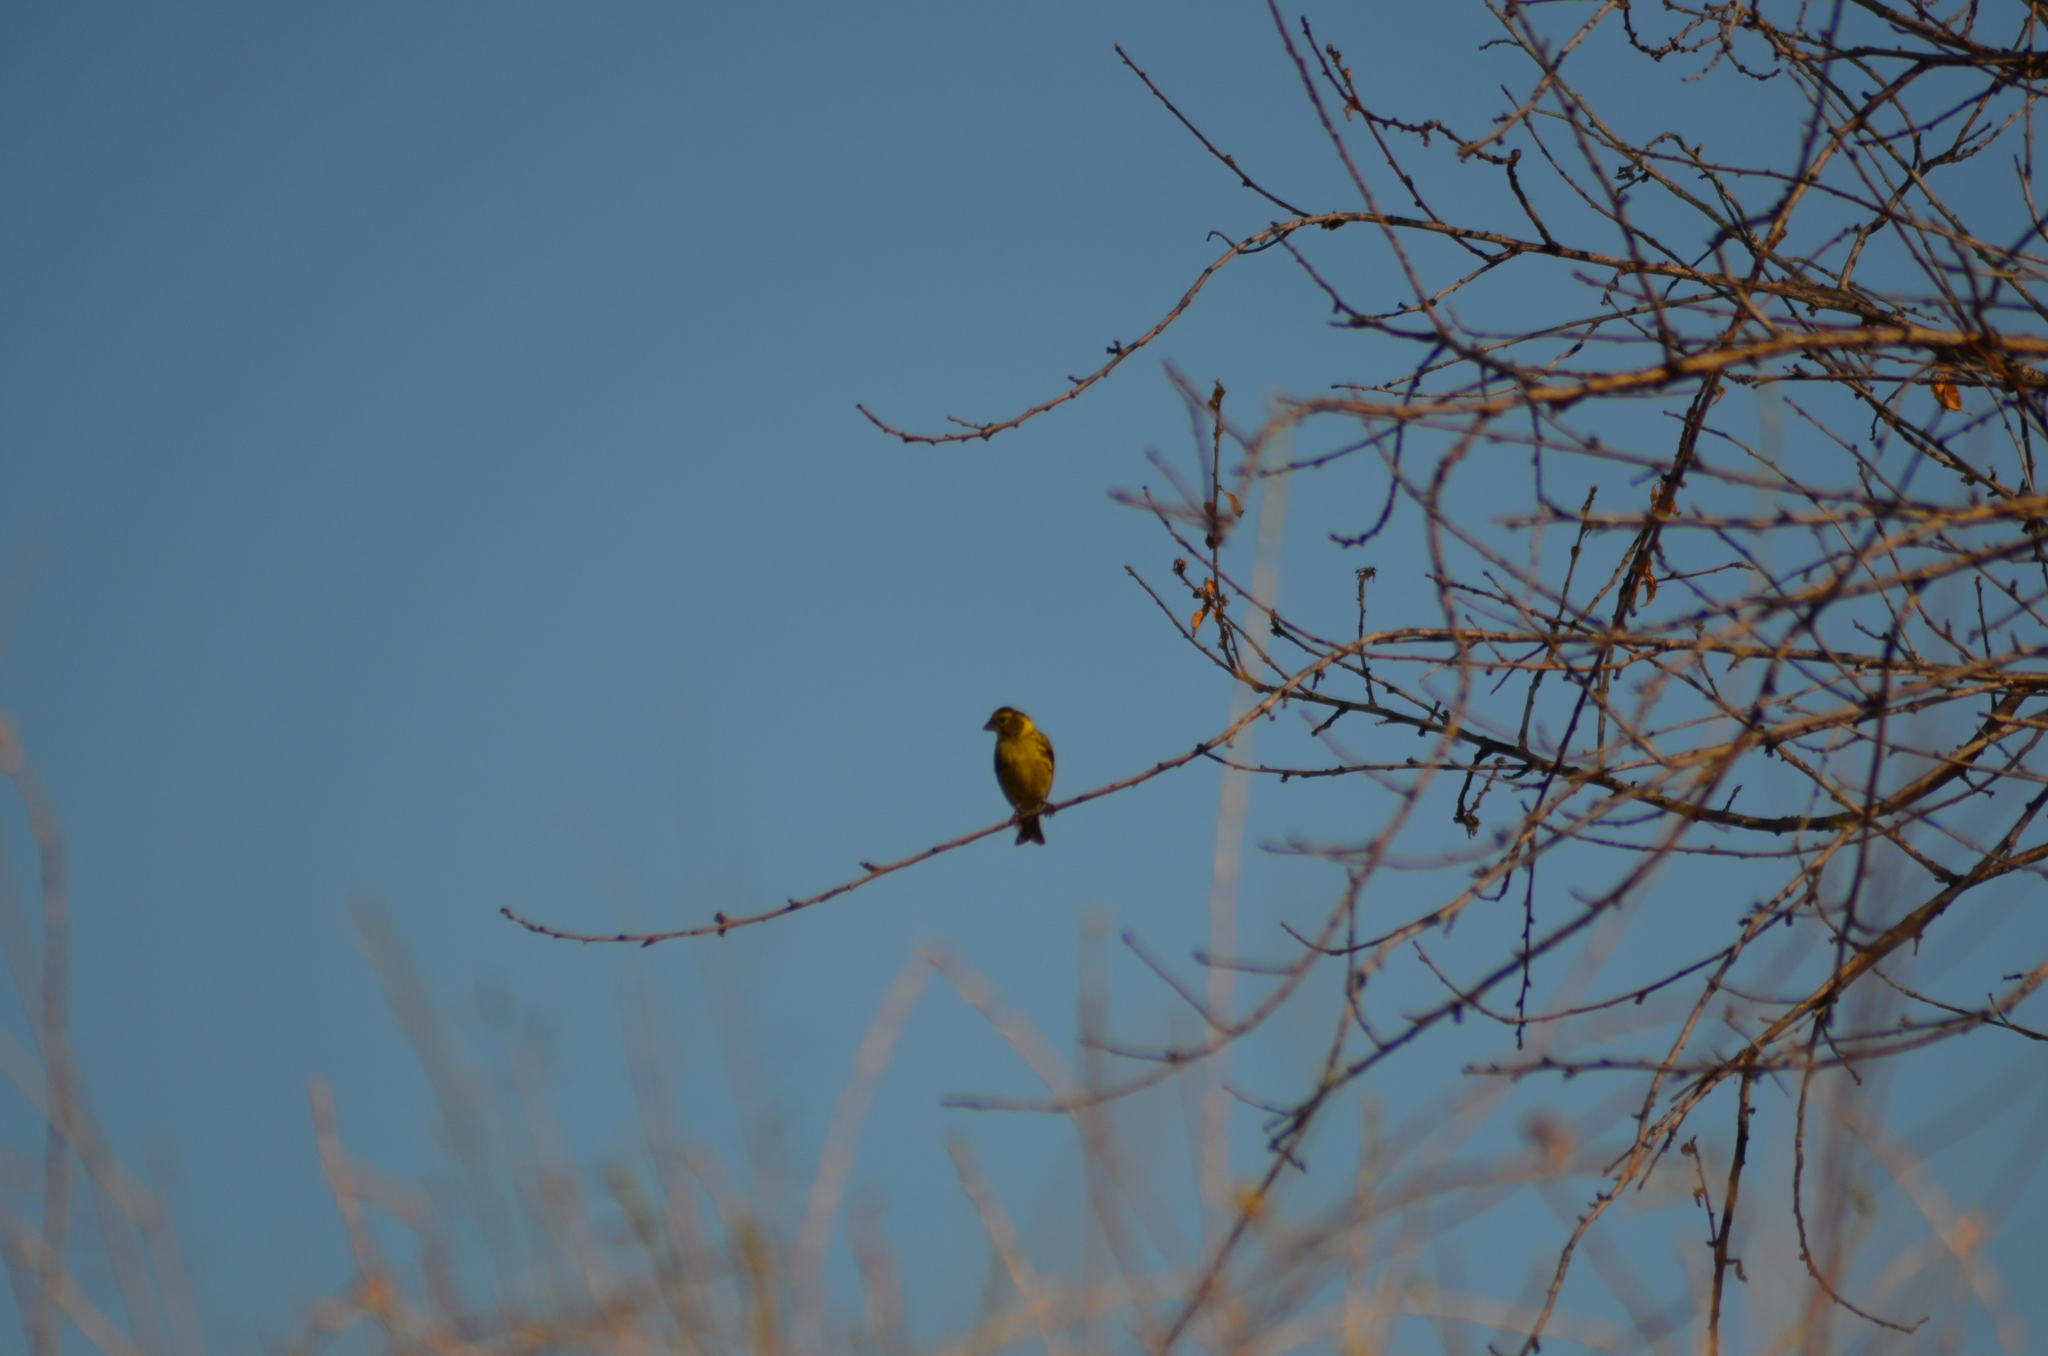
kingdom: Animalia
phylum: Chordata
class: Aves
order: Passeriformes
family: Fringillidae
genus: Serinus
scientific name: Serinus serinus
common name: European serin
